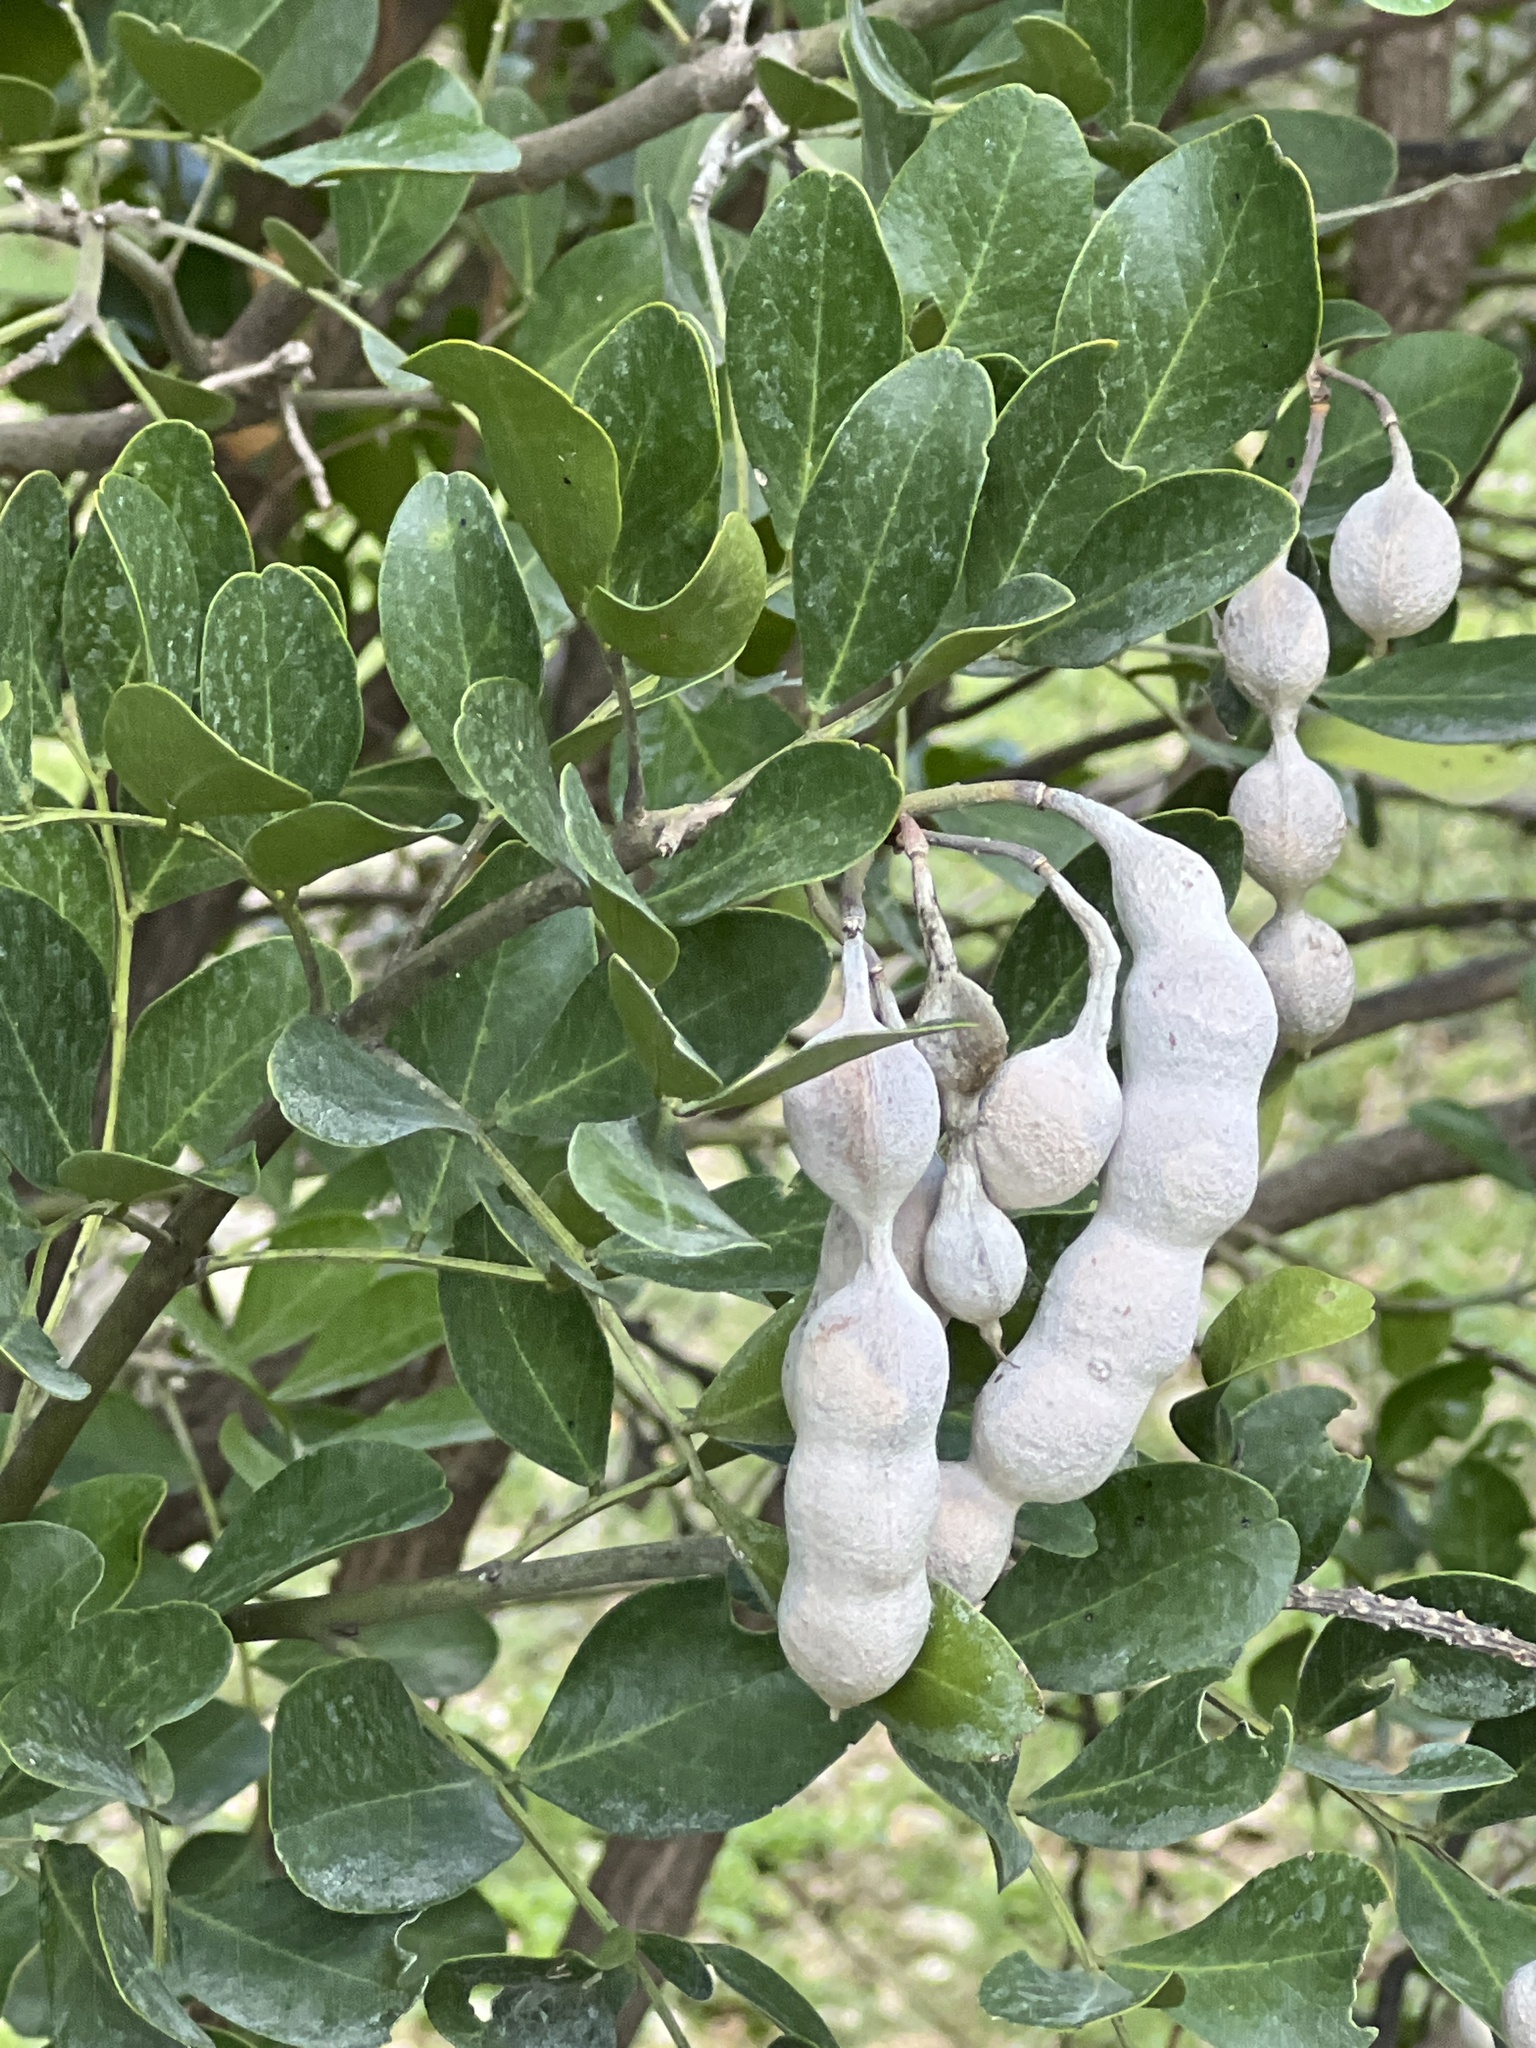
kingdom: Plantae
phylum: Tracheophyta
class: Magnoliopsida
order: Fabales
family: Fabaceae
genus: Dermatophyllum
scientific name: Dermatophyllum secundiflorum
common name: Texas-mountain-laurel
